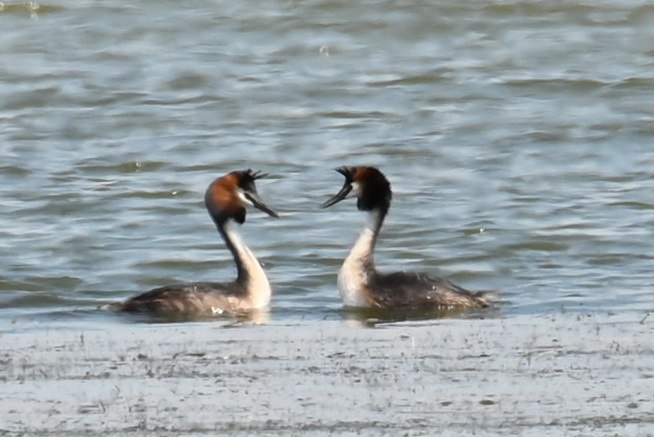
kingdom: Animalia
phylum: Chordata
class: Aves
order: Podicipediformes
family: Podicipedidae
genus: Podiceps
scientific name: Podiceps cristatus
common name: Great crested grebe
